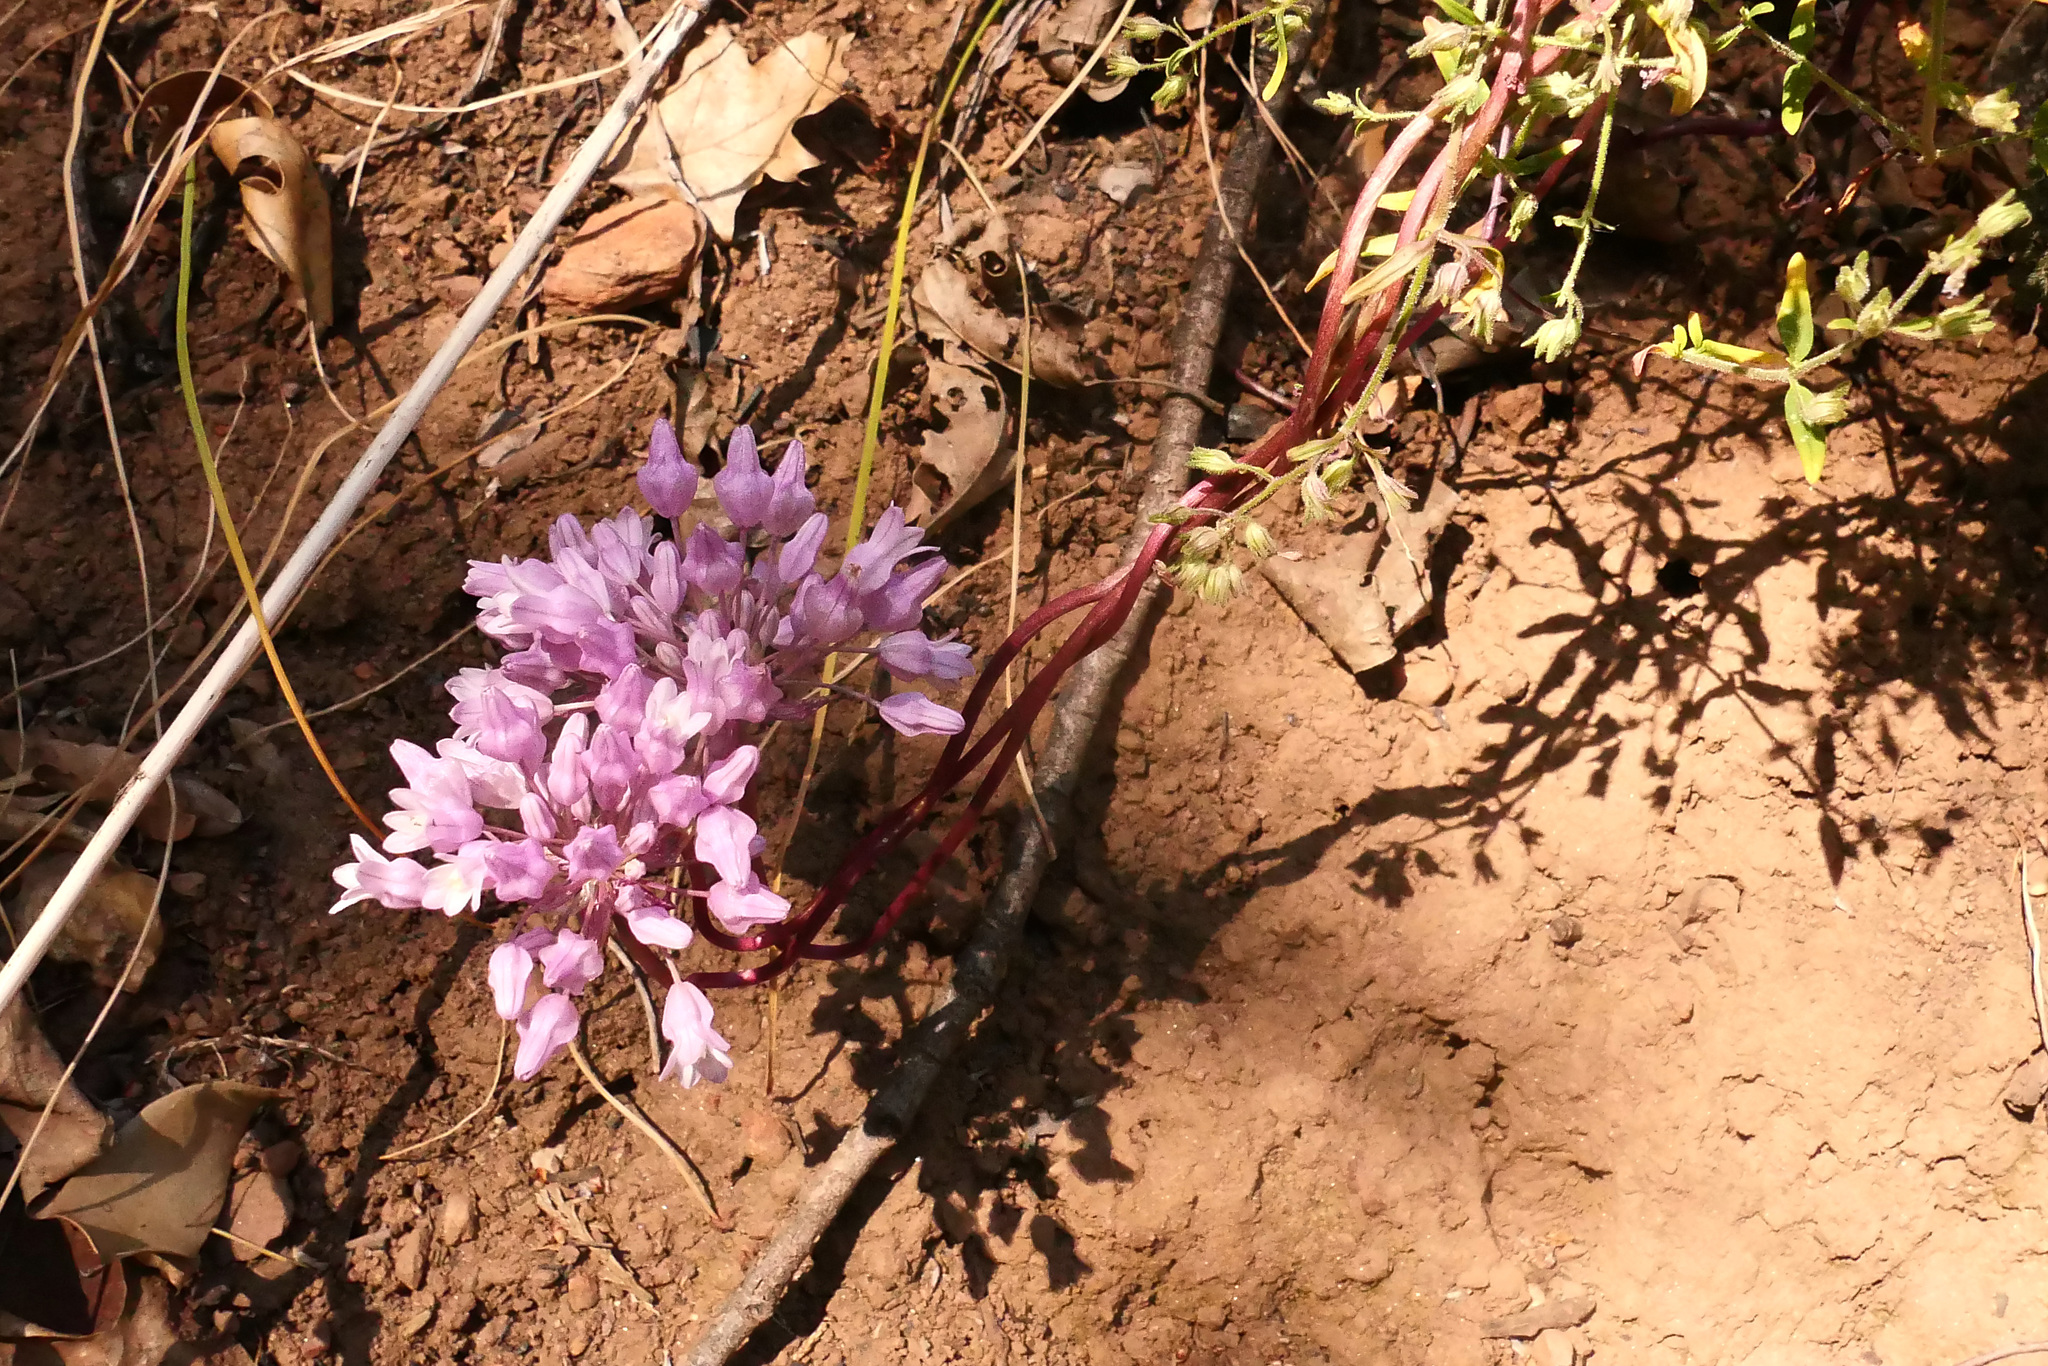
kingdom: Plantae
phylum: Tracheophyta
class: Liliopsida
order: Asparagales
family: Asparagaceae
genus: Dichelostemma
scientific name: Dichelostemma volubile
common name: Trining brodiaea
